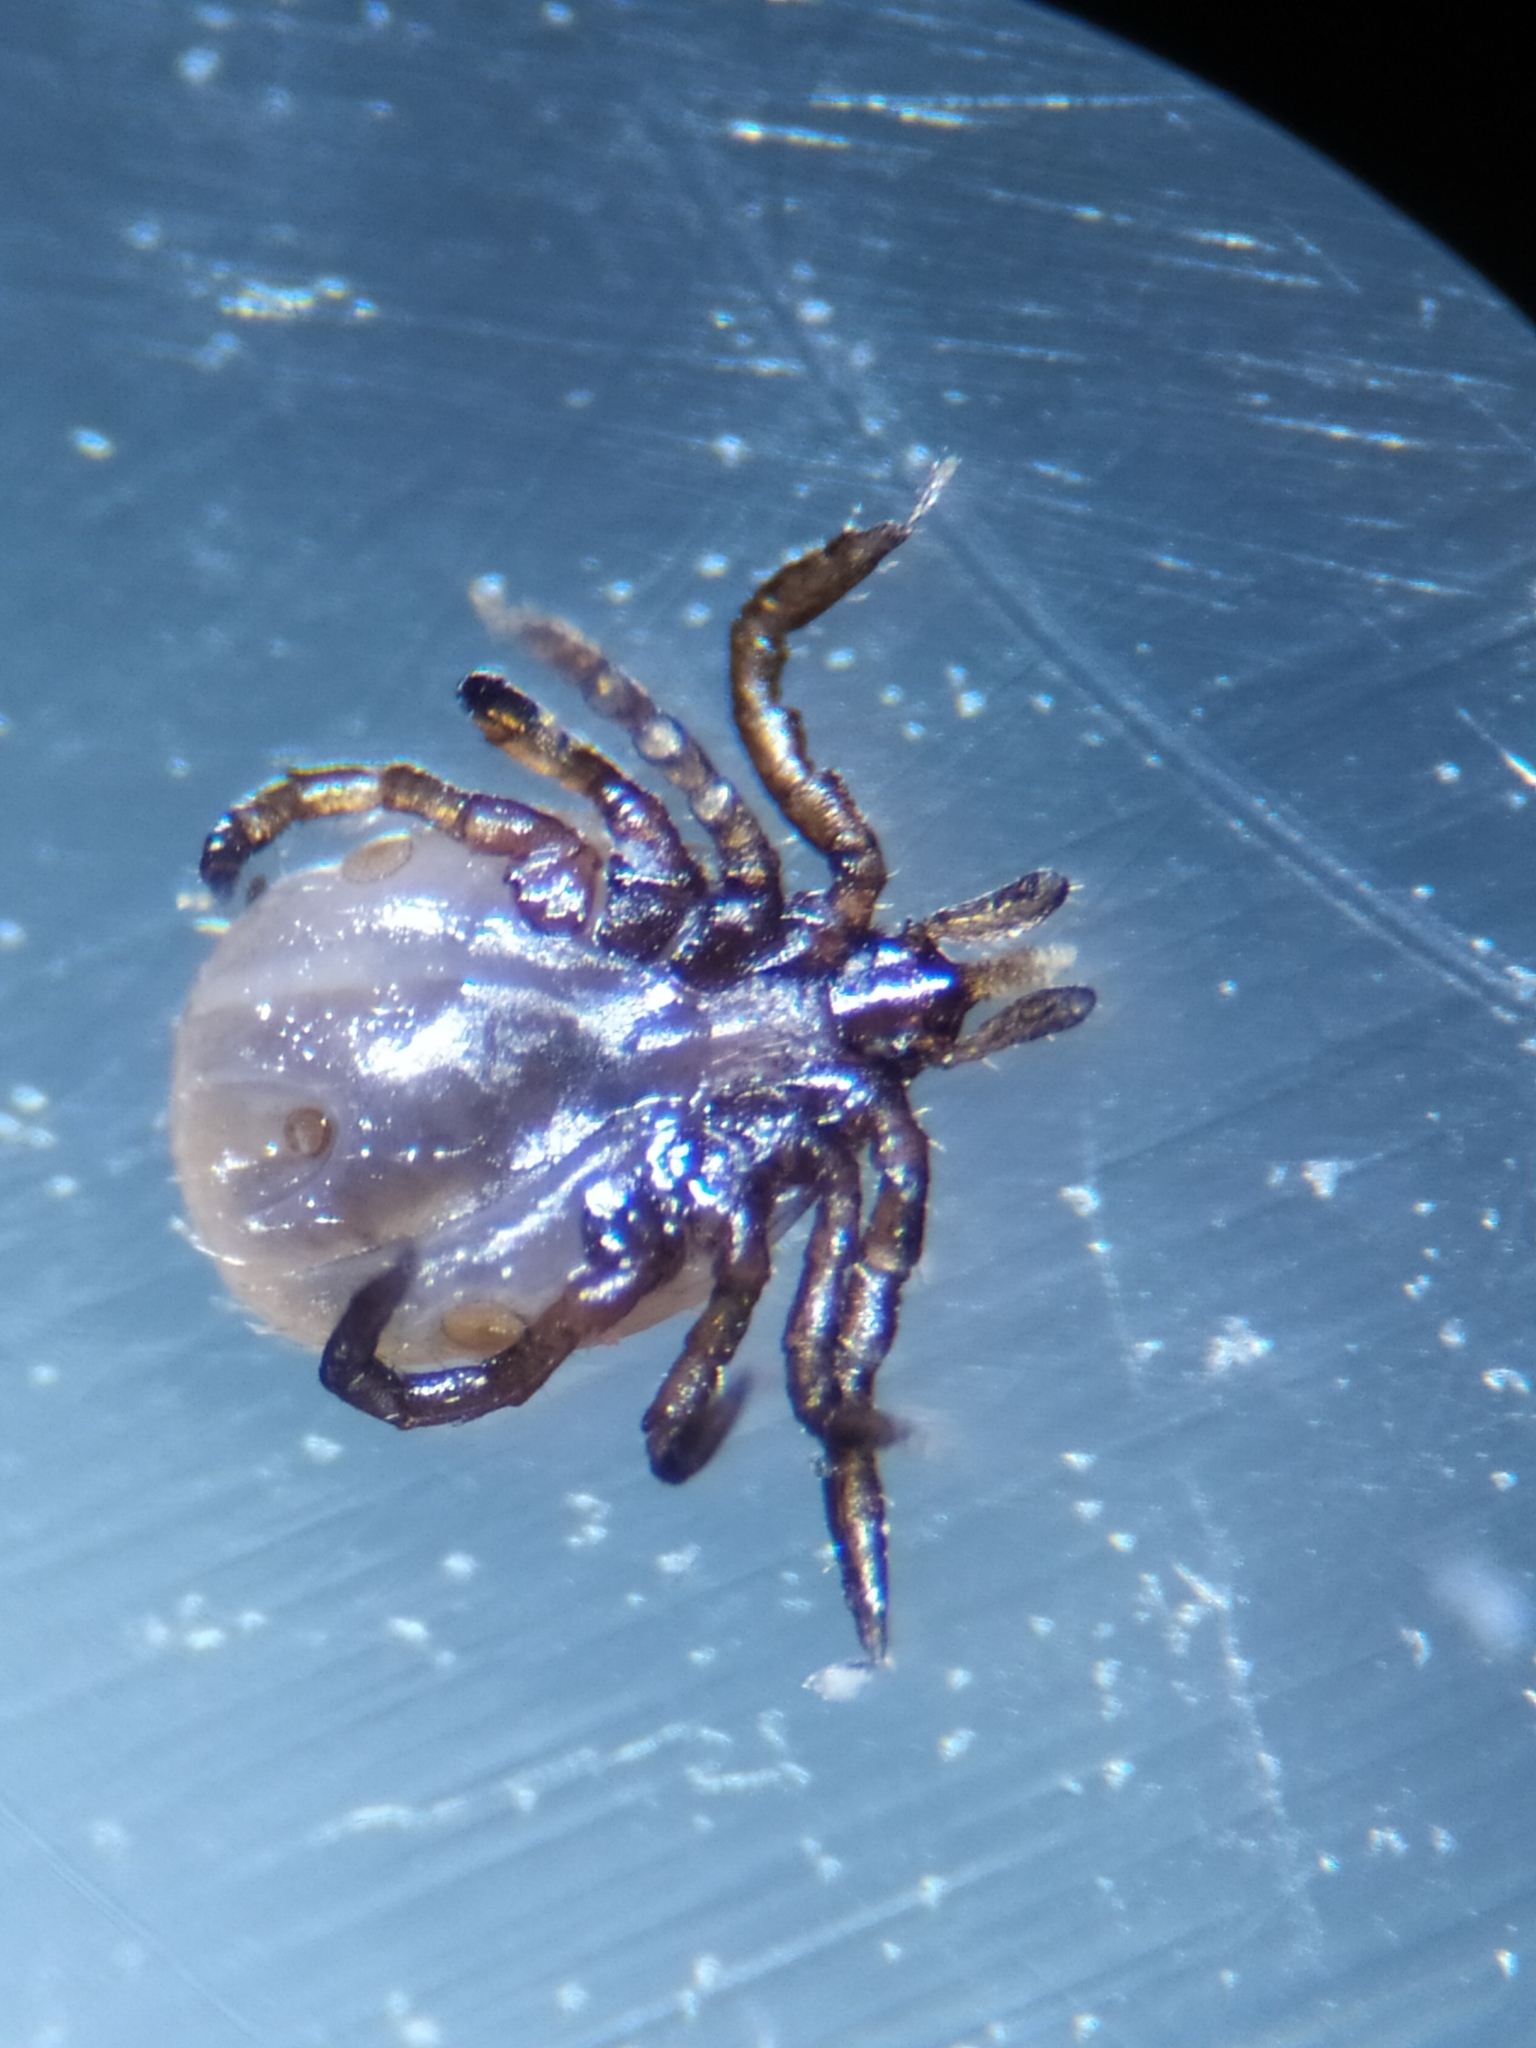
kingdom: Animalia
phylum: Arthropoda
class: Arachnida
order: Ixodida
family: Ixodidae
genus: Ixodes
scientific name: Ixodes ricinus
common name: Castor bean tick
